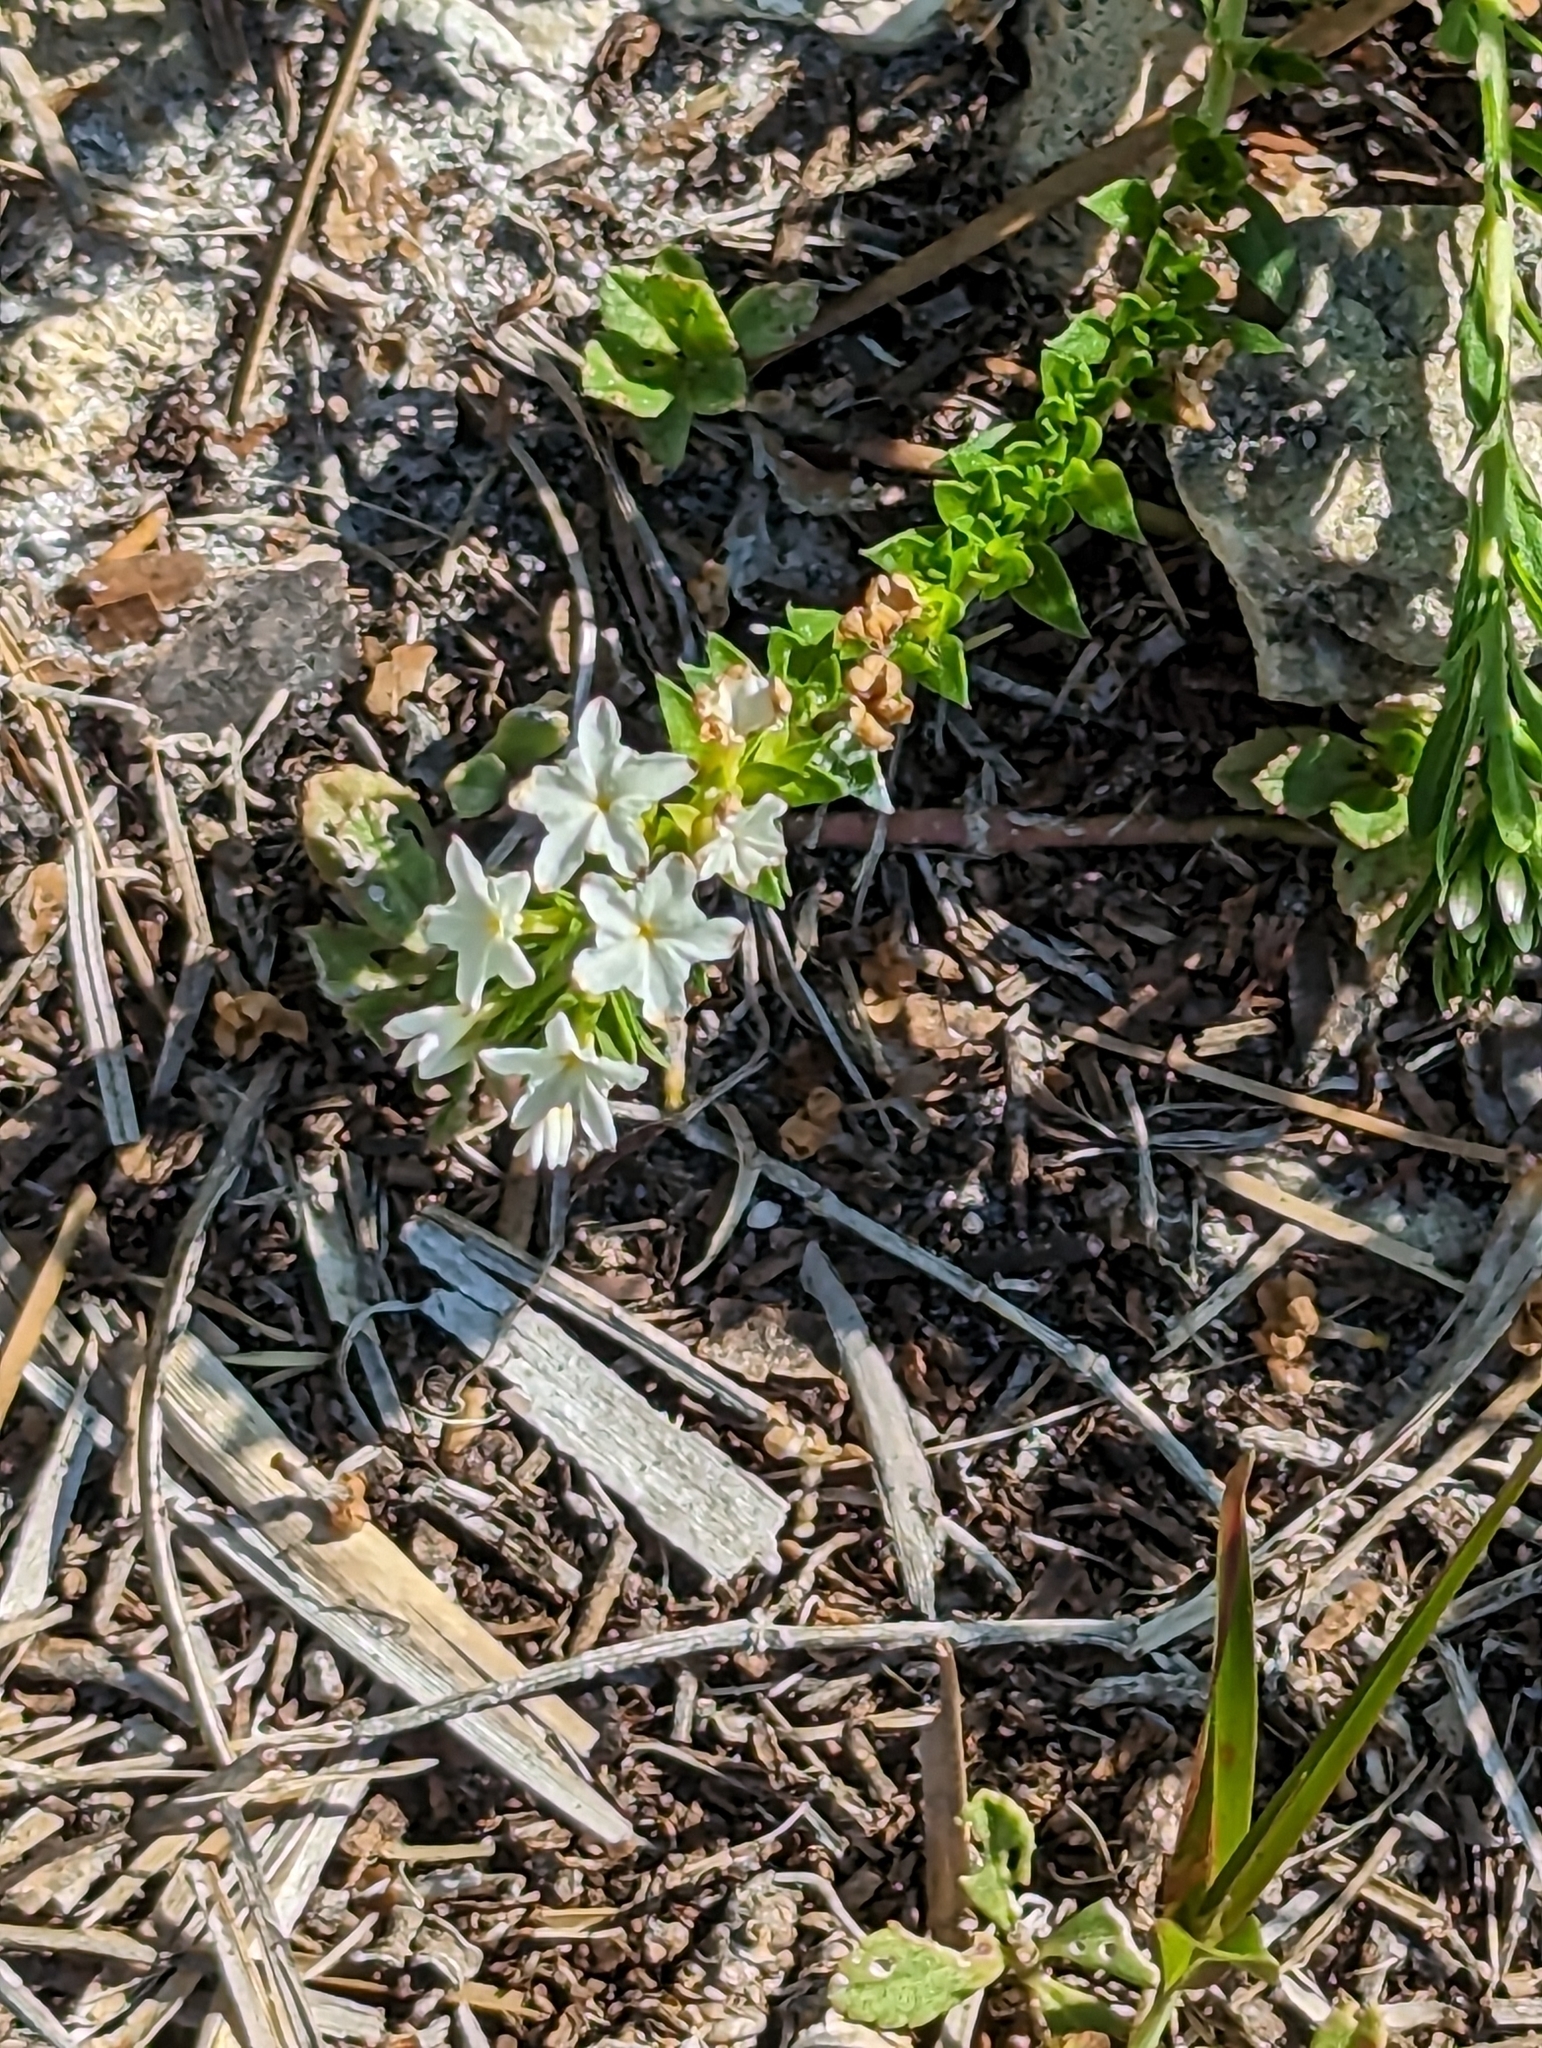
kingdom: Plantae
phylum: Tracheophyta
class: Magnoliopsida
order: Boraginales
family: Heliotropiaceae
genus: Euploca
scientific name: Euploca polyphylla
